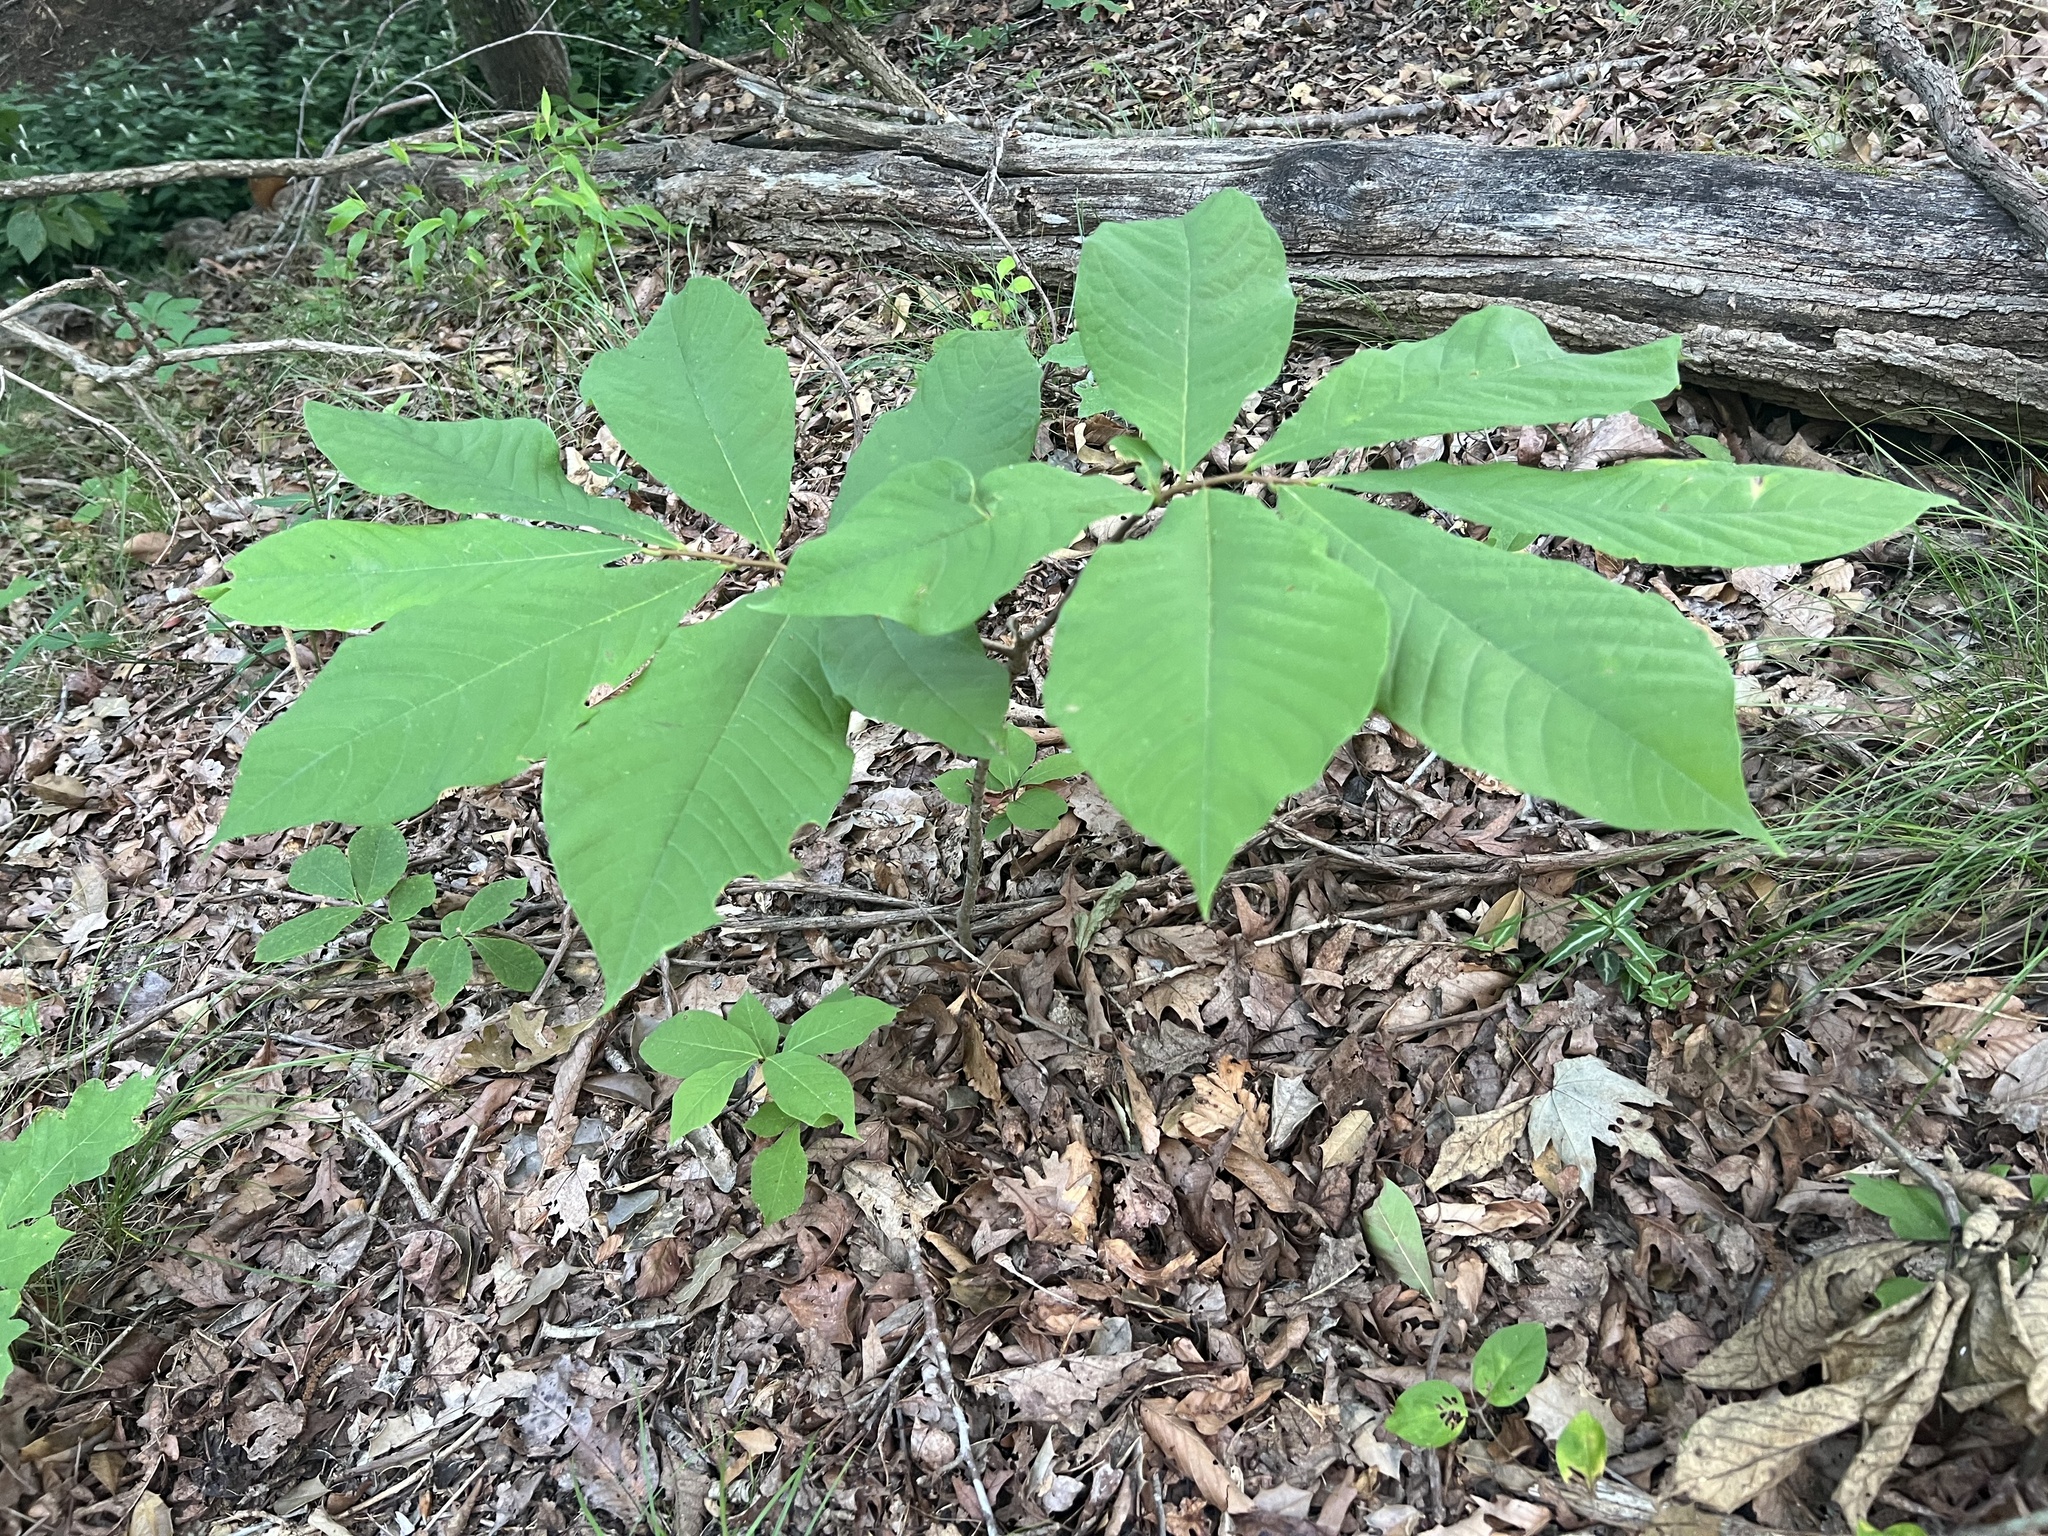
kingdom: Plantae
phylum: Tracheophyta
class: Magnoliopsida
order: Magnoliales
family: Annonaceae
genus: Asimina
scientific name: Asimina triloba
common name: Dog-banana
